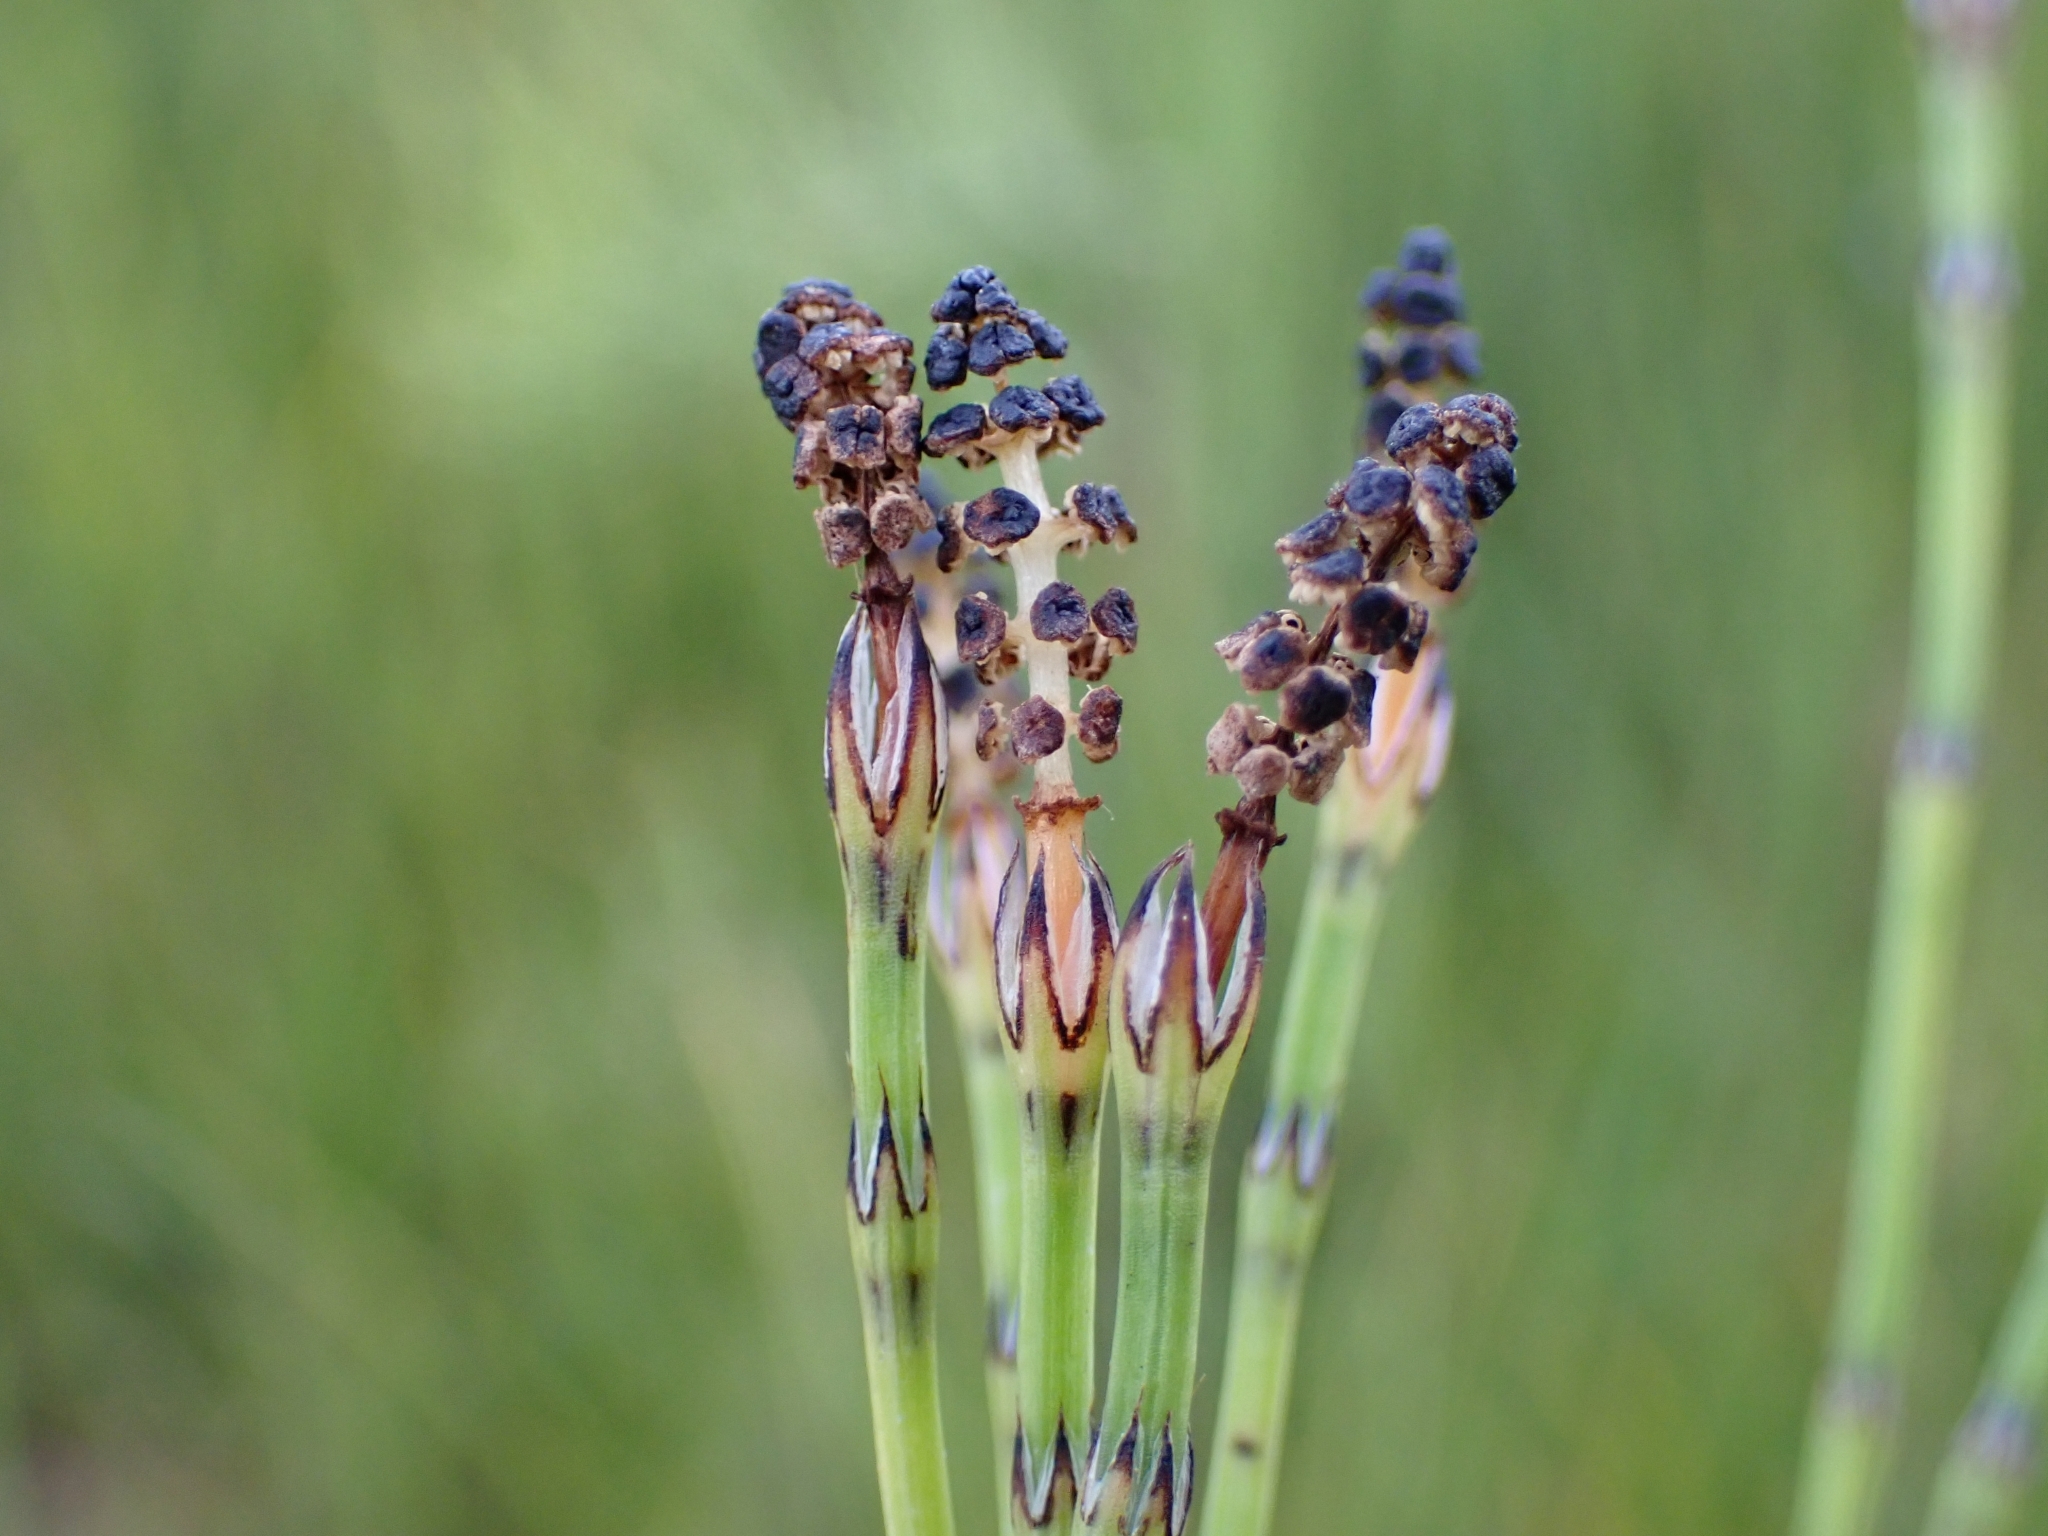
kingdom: Plantae
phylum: Tracheophyta
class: Polypodiopsida
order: Equisetales
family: Equisetaceae
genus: Equisetum
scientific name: Equisetum palustre
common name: Marsh horsetail
